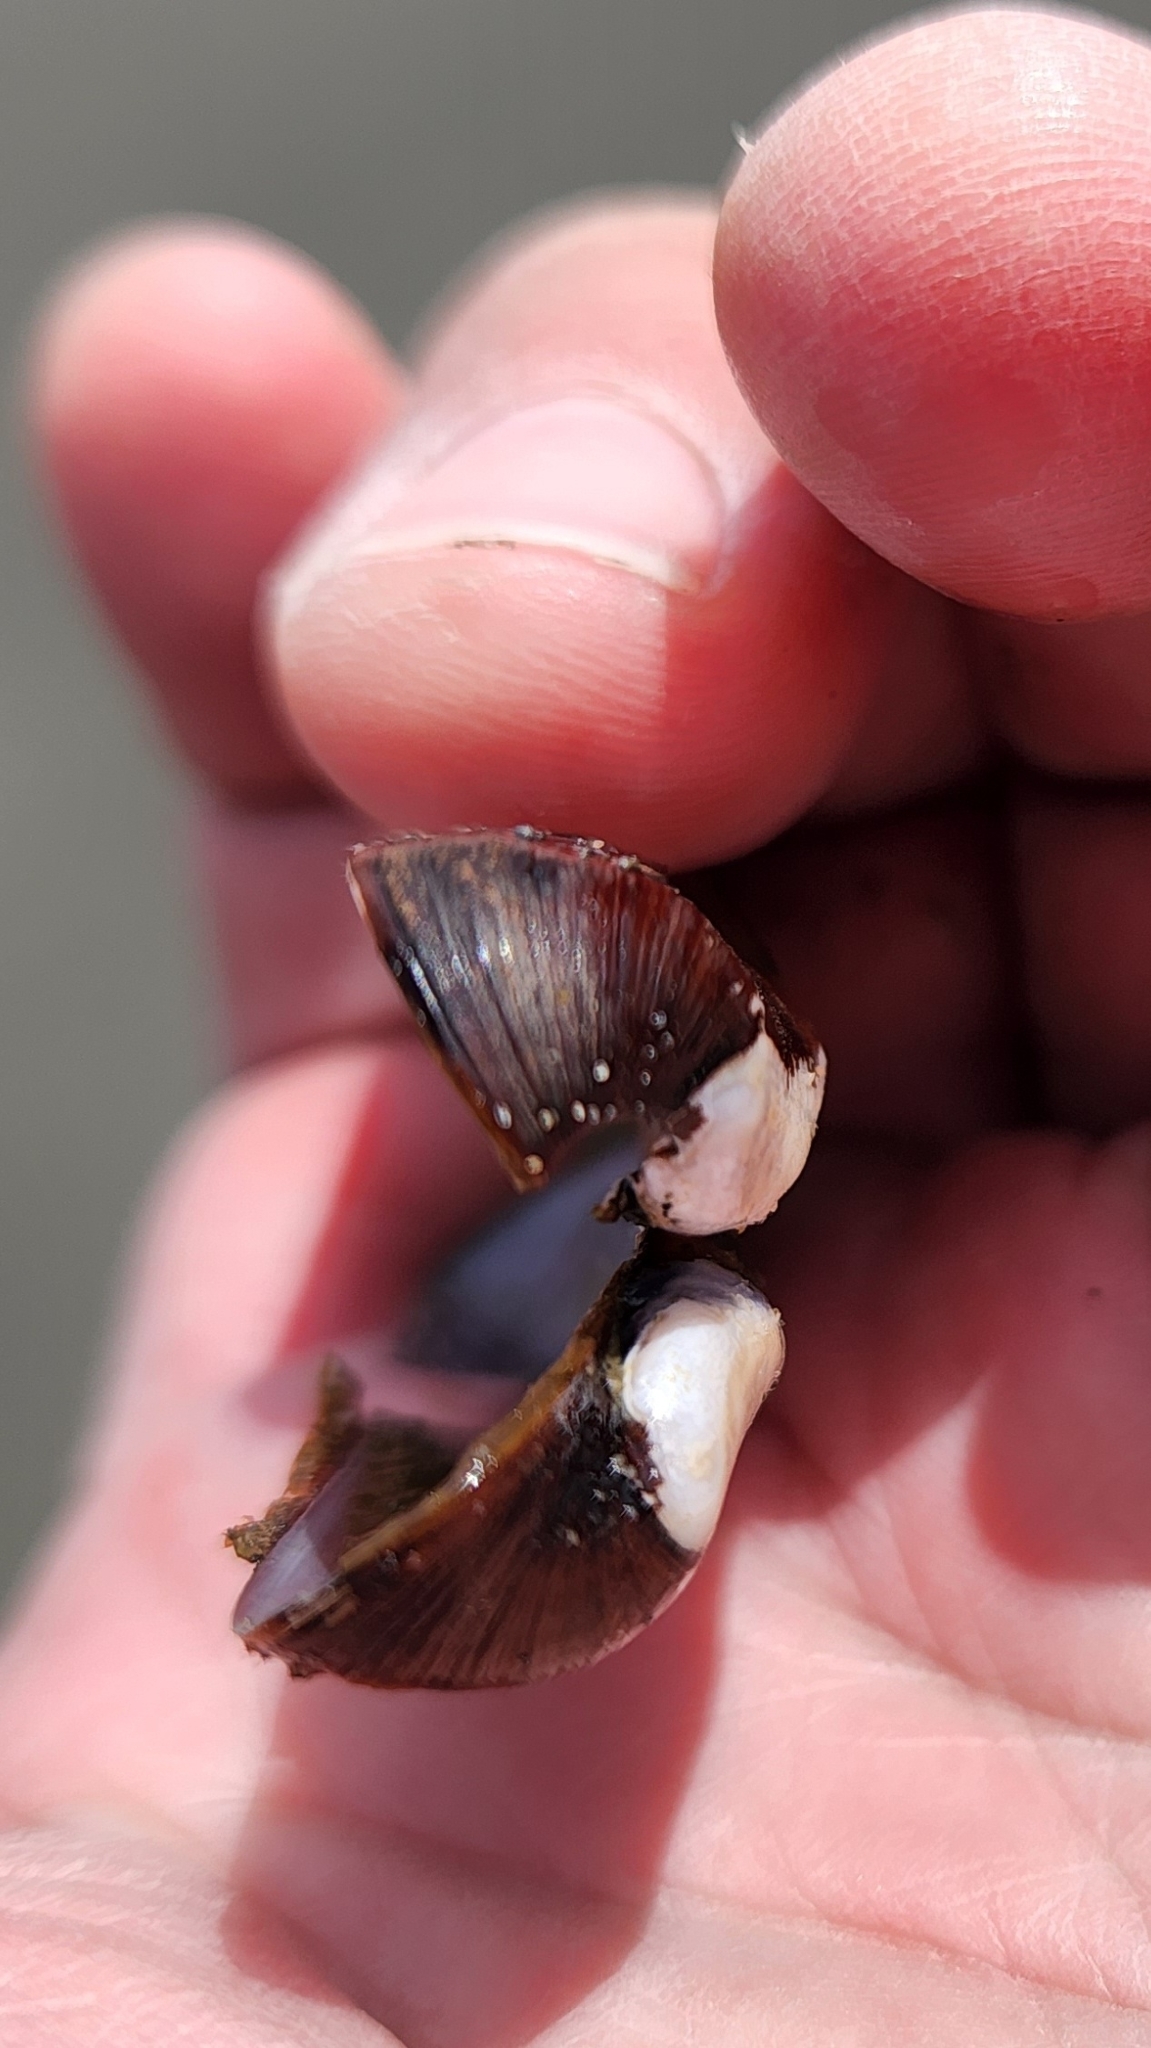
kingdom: Animalia
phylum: Mollusca
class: Bivalvia
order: Mytilida
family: Mytilidae
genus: Adula
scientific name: Adula californiensis
